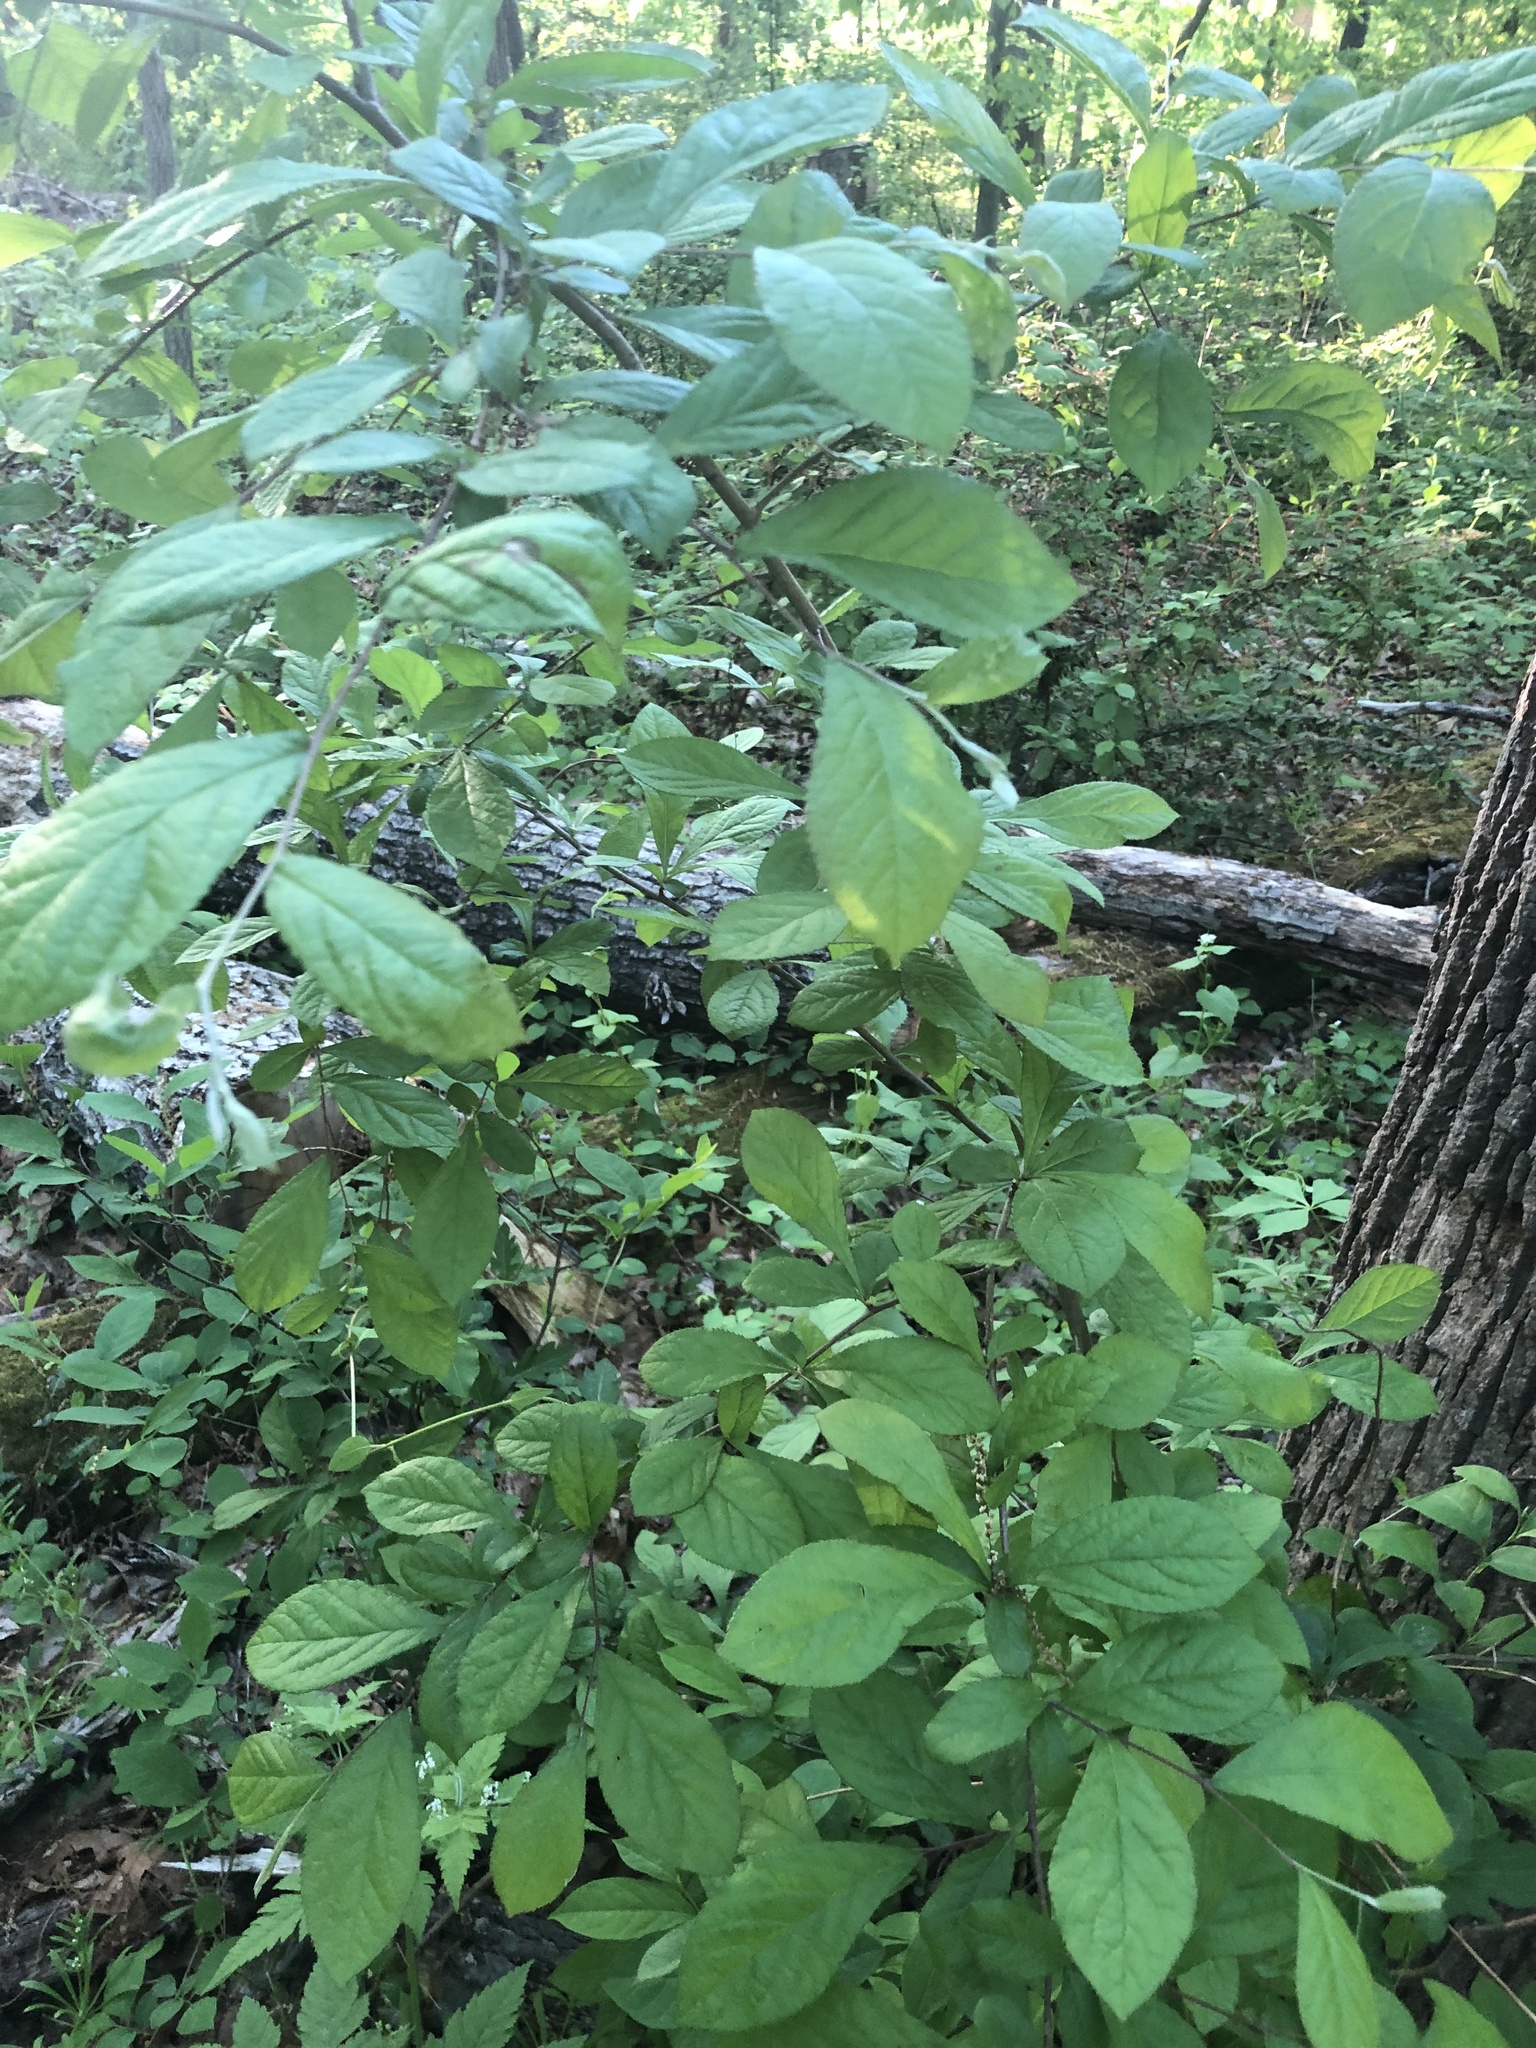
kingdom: Plantae
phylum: Tracheophyta
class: Magnoliopsida
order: Laurales
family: Lauraceae
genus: Lindera
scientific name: Lindera benzoin
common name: Spicebush
